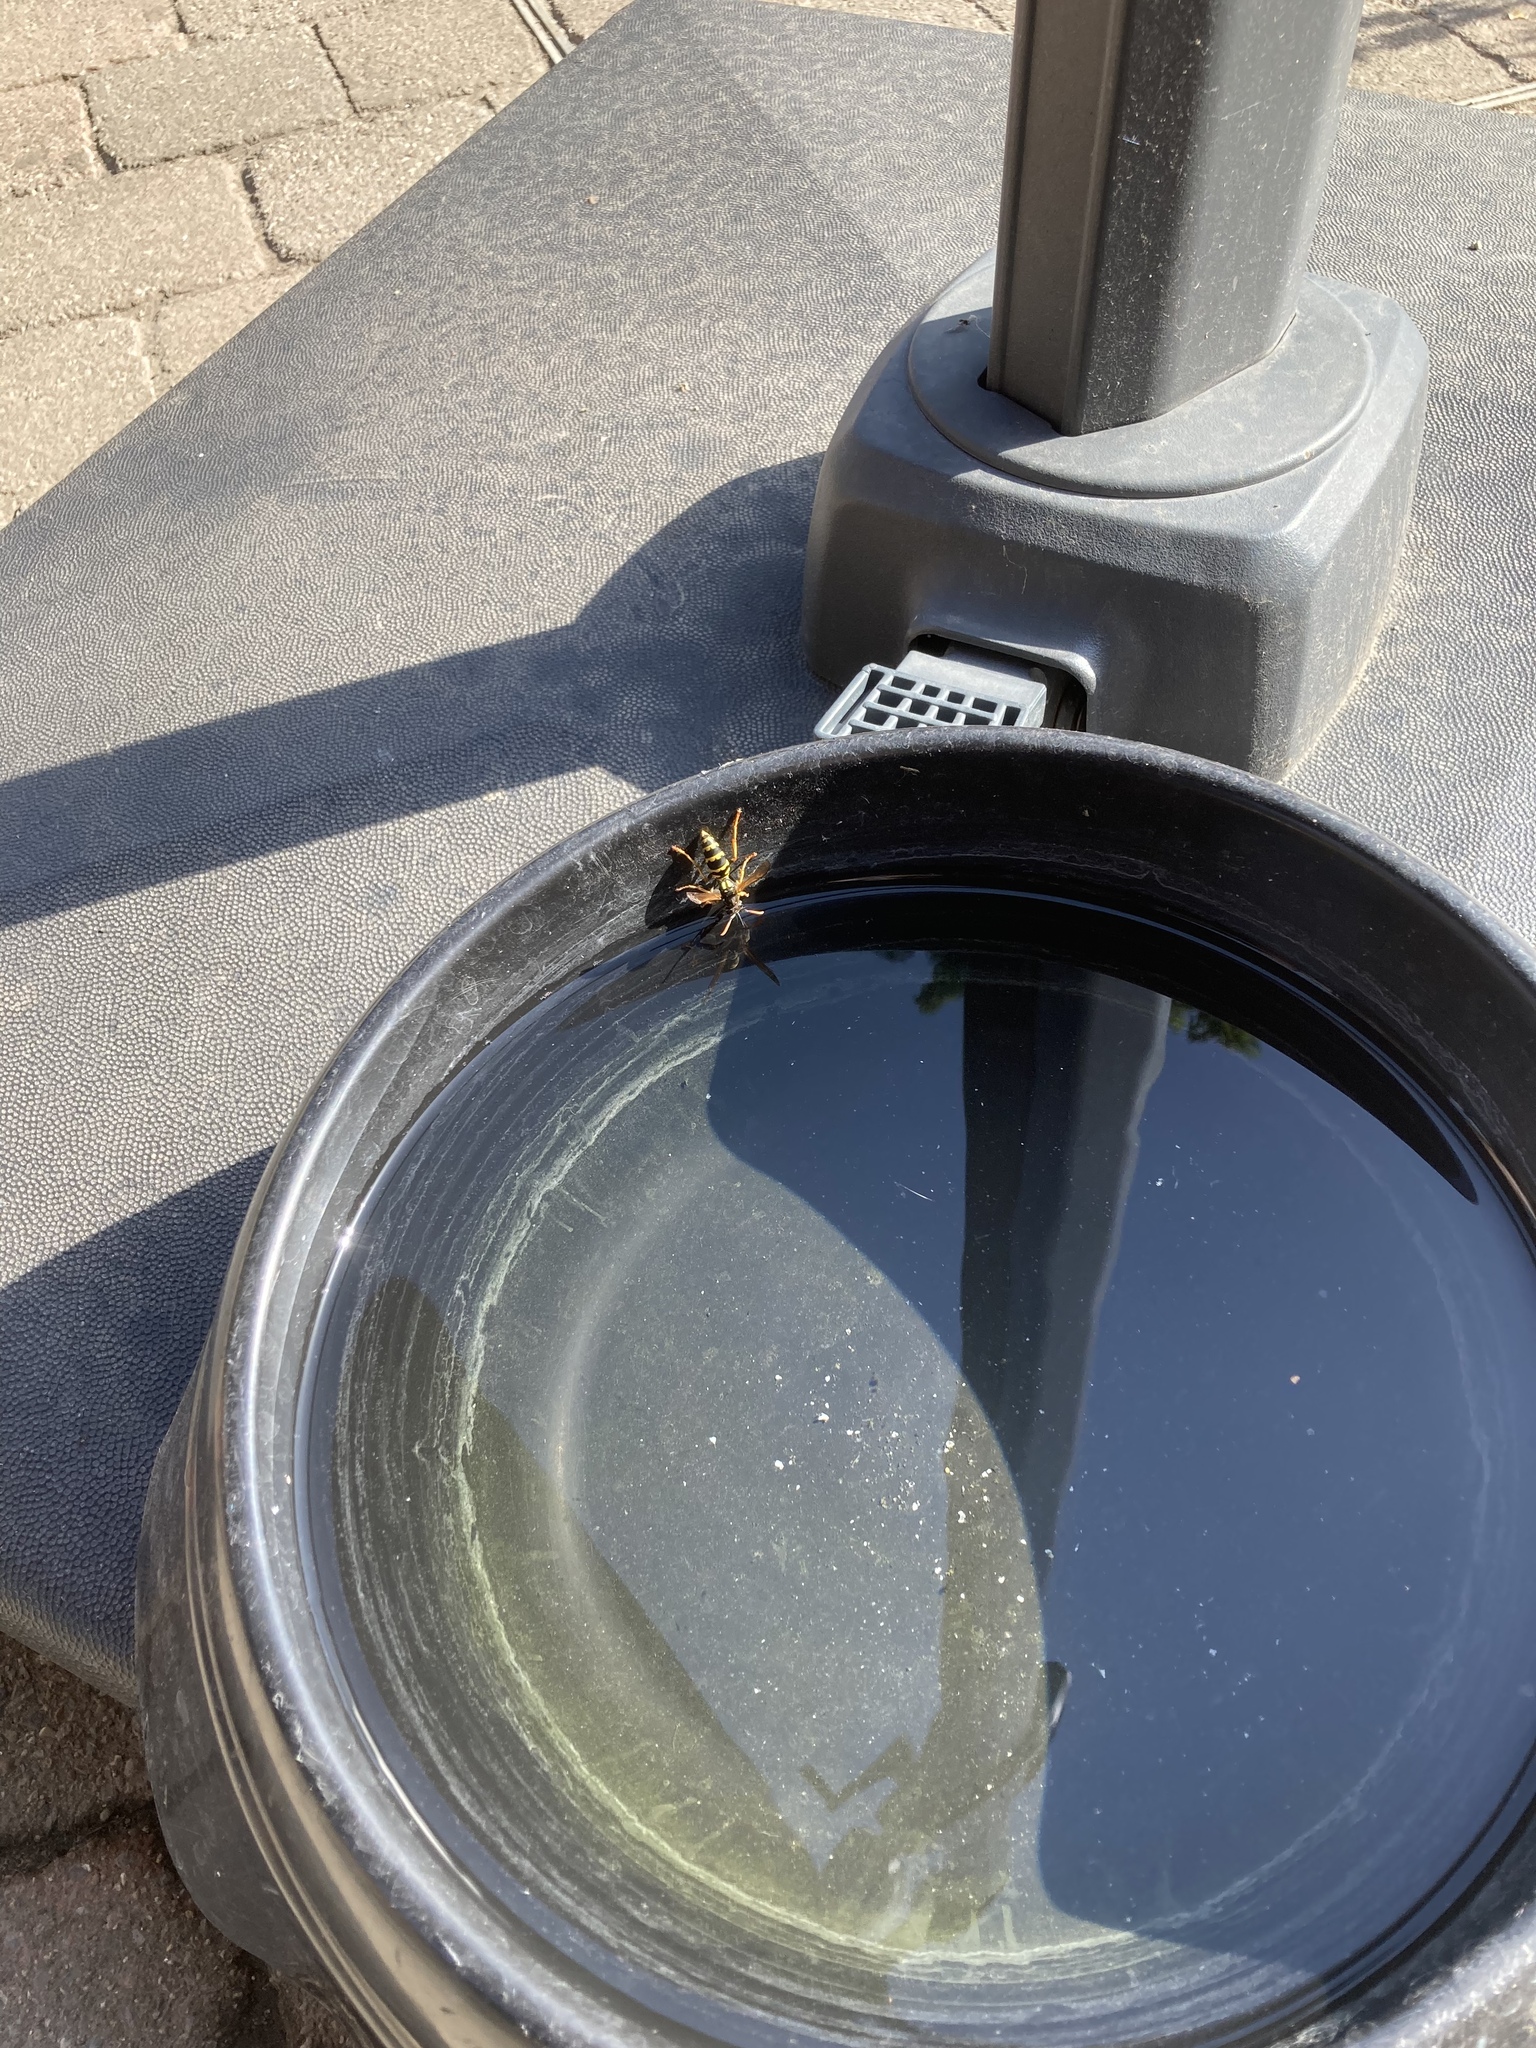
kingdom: Animalia
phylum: Arthropoda
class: Insecta
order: Hymenoptera
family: Eumenidae
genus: Polistes
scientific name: Polistes dominula
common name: Paper wasp
